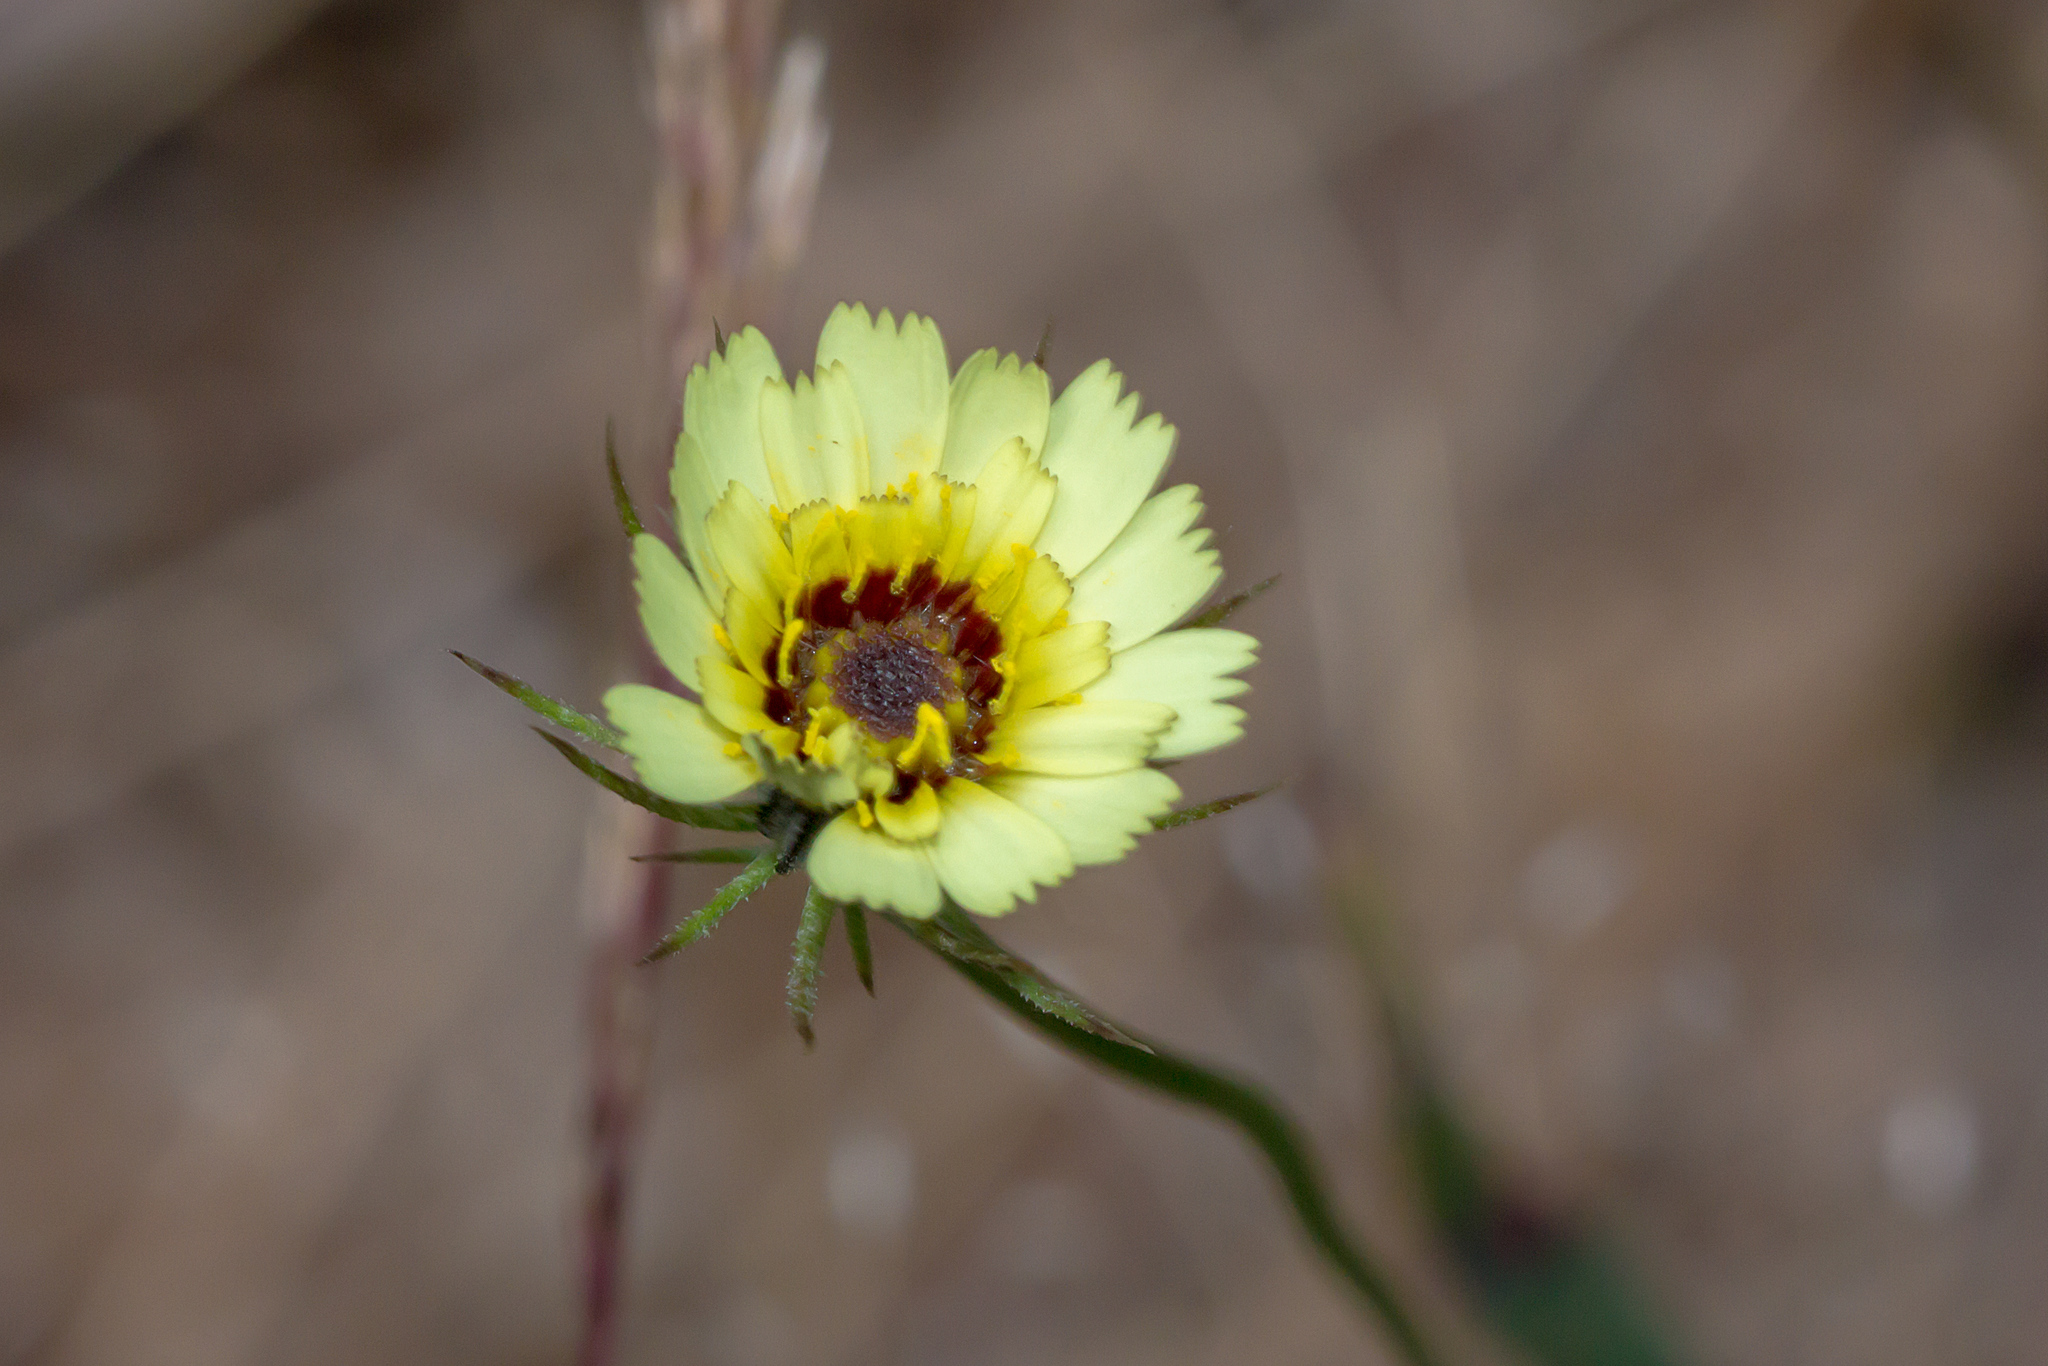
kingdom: Plantae
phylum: Tracheophyta
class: Magnoliopsida
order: Asterales
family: Asteraceae
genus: Tolpis
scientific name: Tolpis barbata
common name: Yellow hawkweed
